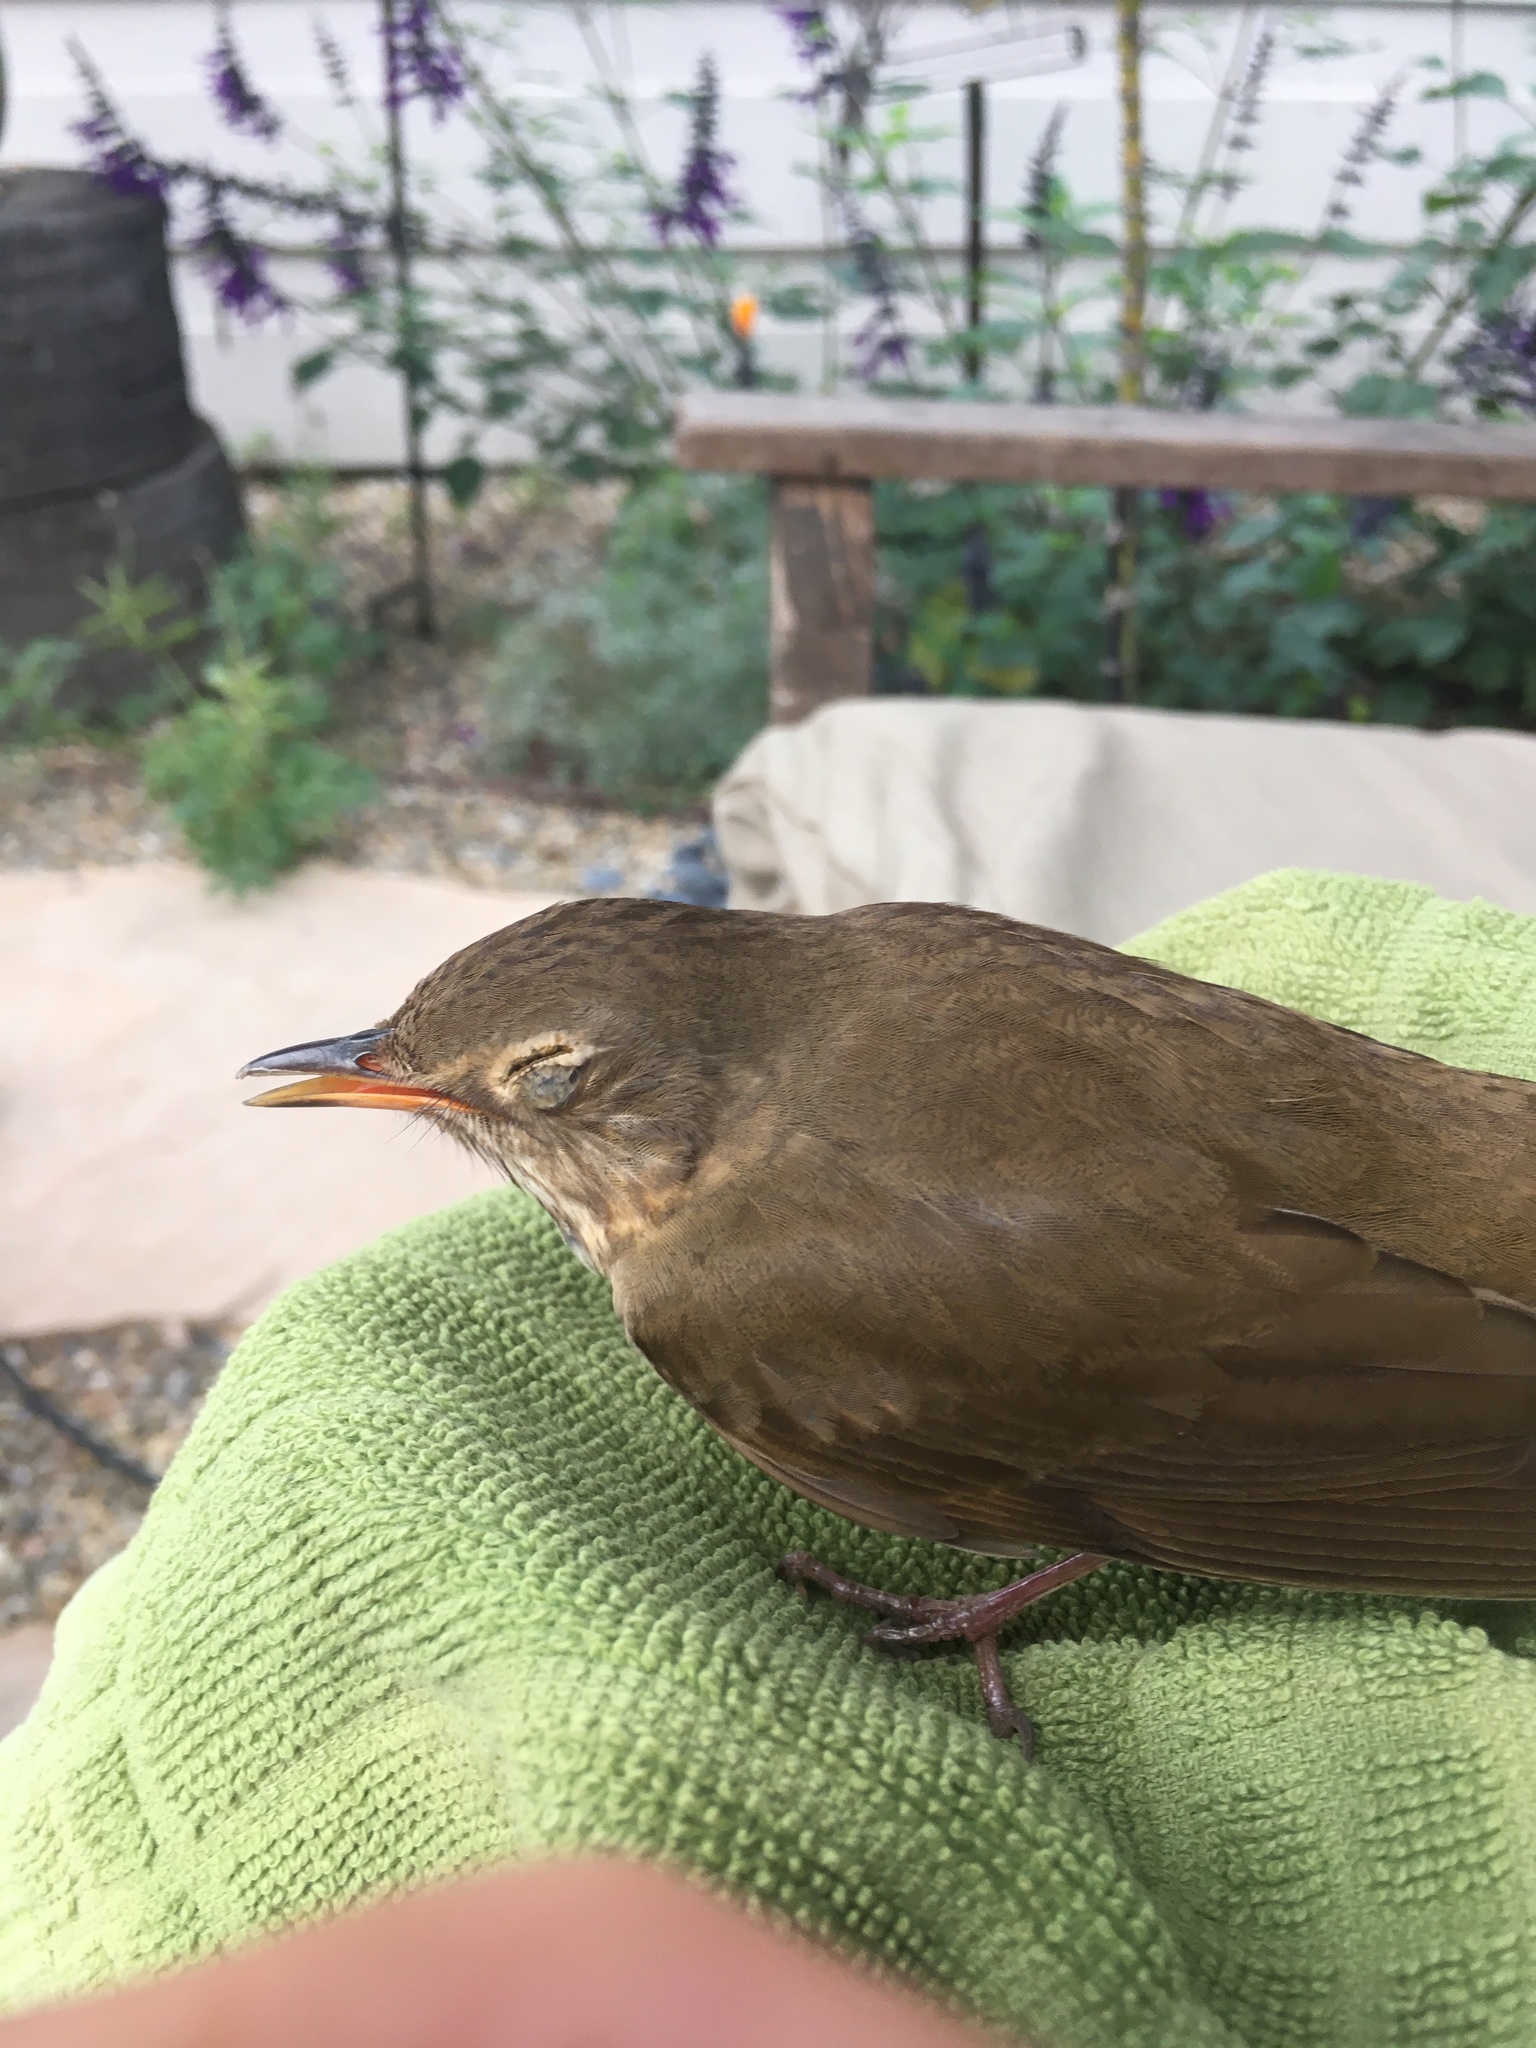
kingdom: Animalia
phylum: Chordata
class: Aves
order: Passeriformes
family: Turdidae
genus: Catharus
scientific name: Catharus ustulatus
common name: Swainson's thrush
